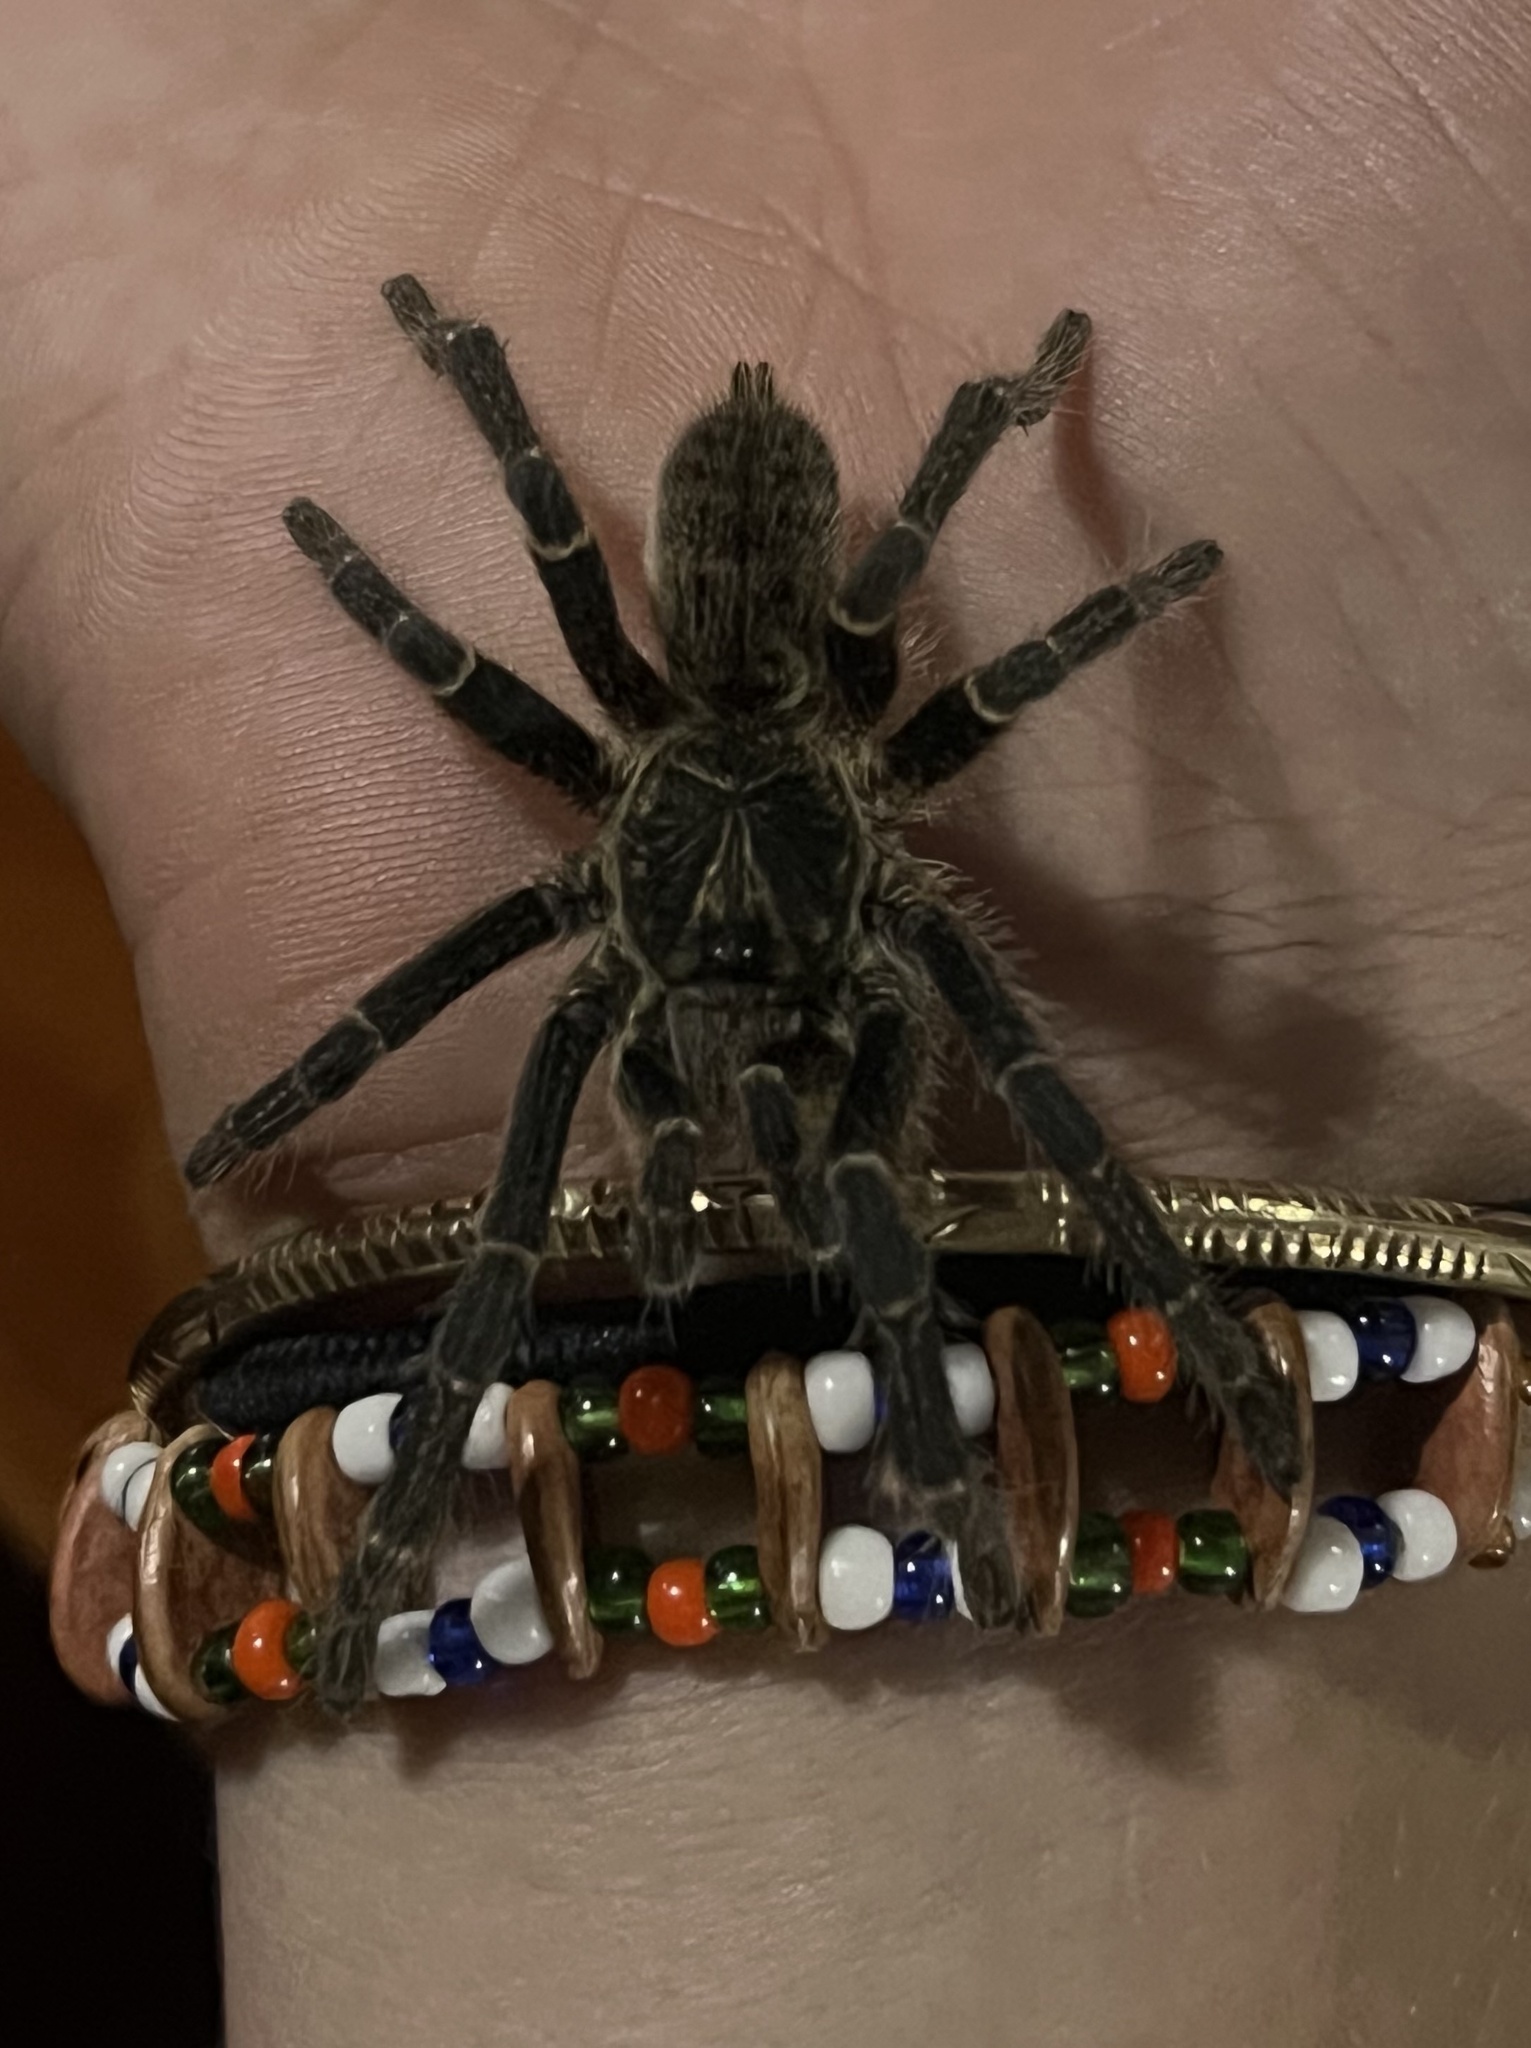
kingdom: Animalia
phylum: Arthropoda
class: Arachnida
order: Araneae
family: Theraphosidae
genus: Pterinochilus
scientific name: Pterinochilus chordatus
